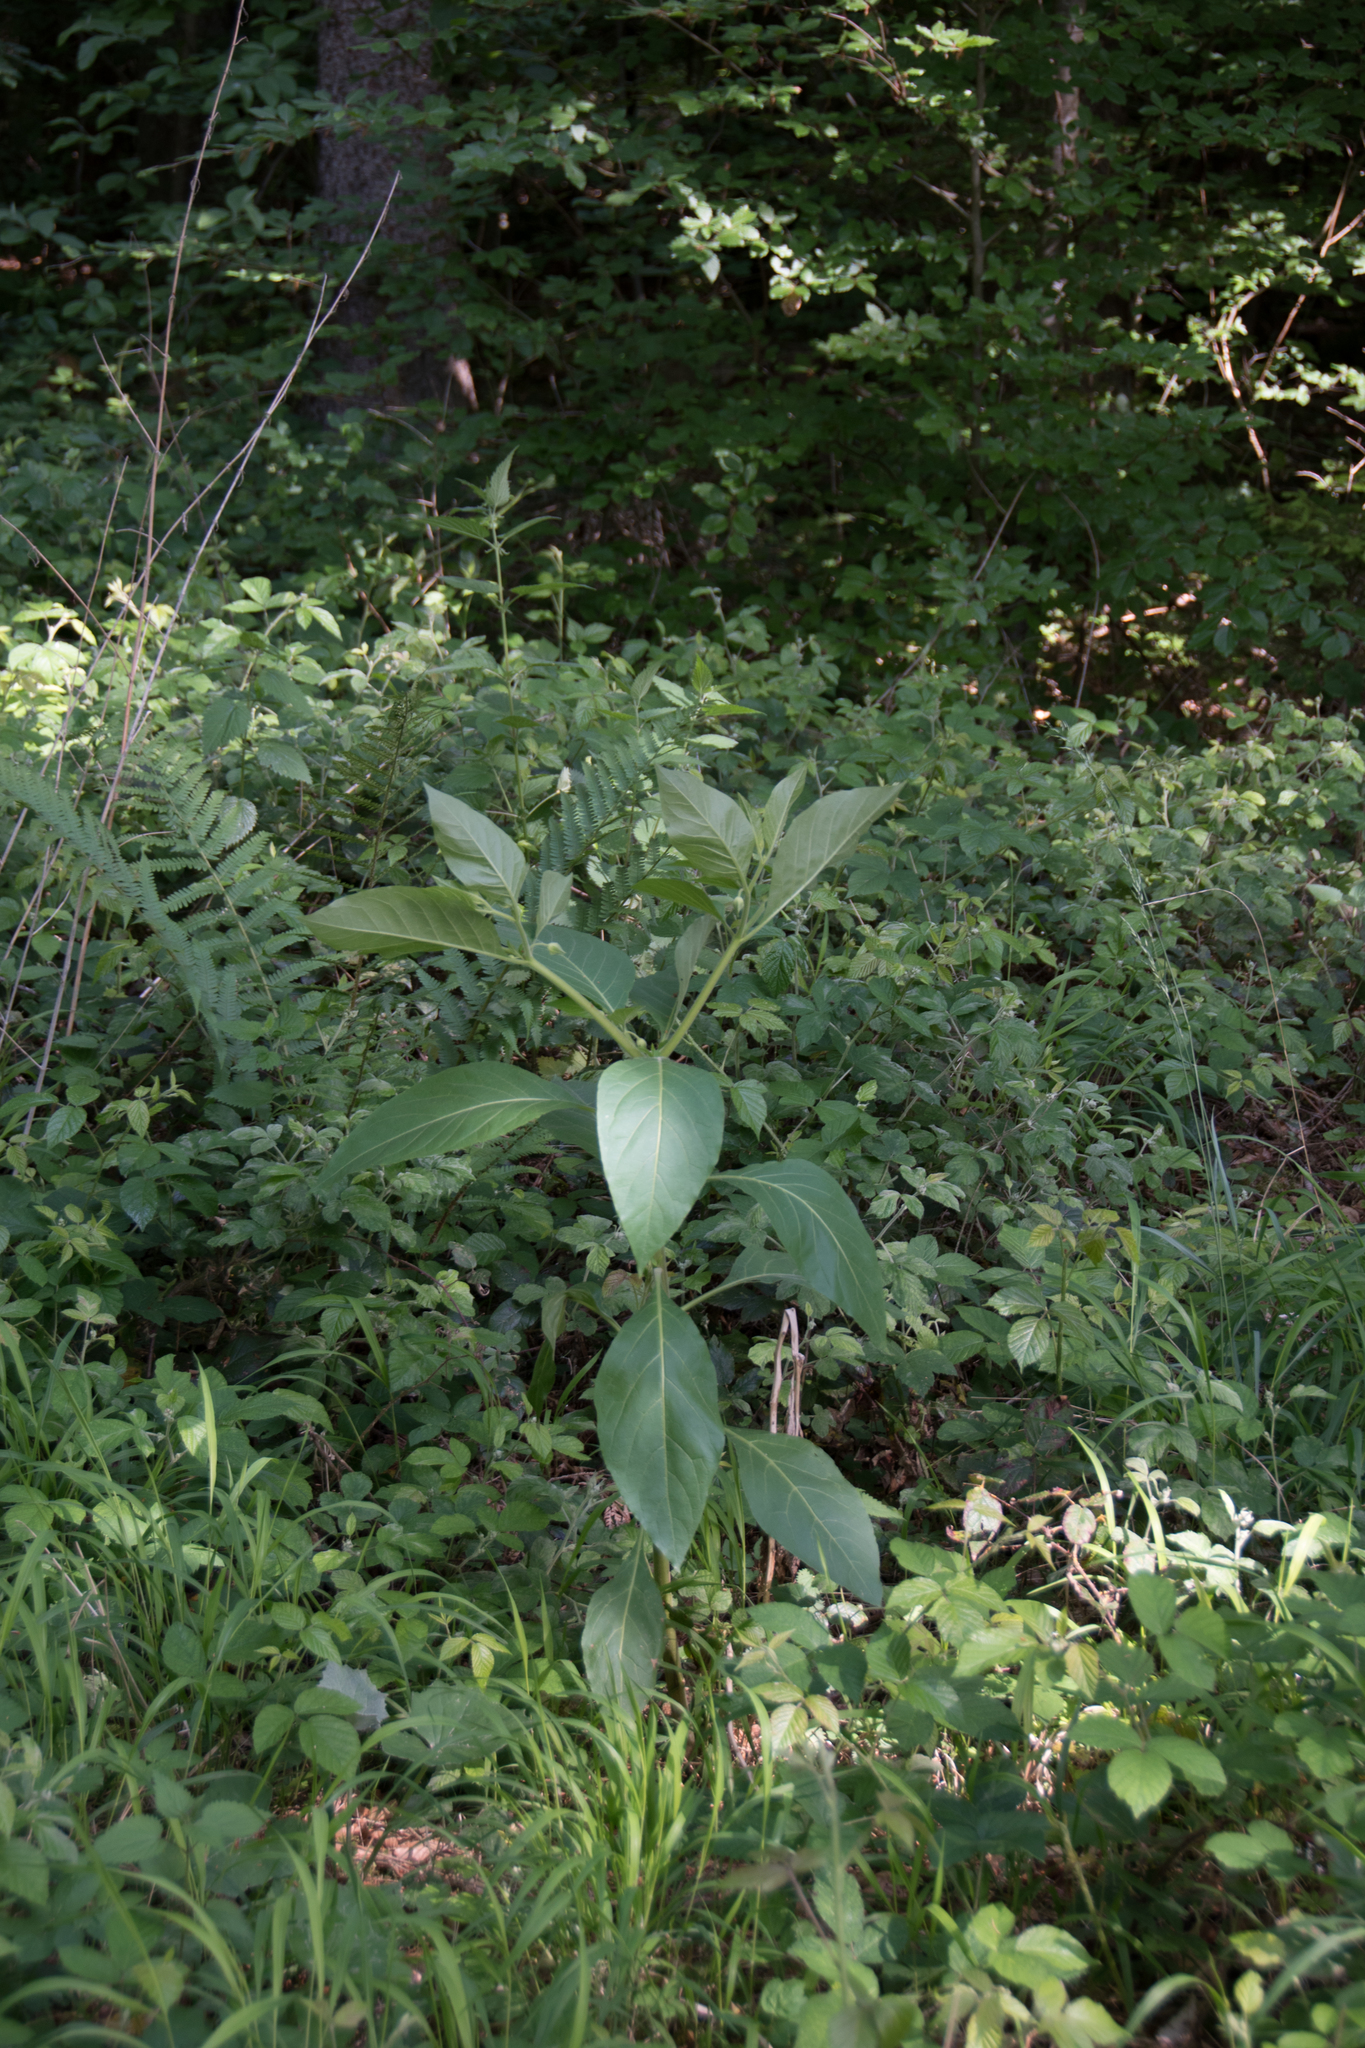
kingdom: Plantae
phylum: Tracheophyta
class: Magnoliopsida
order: Solanales
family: Solanaceae
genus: Atropa
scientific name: Atropa belladonna
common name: Deadly nightshade
